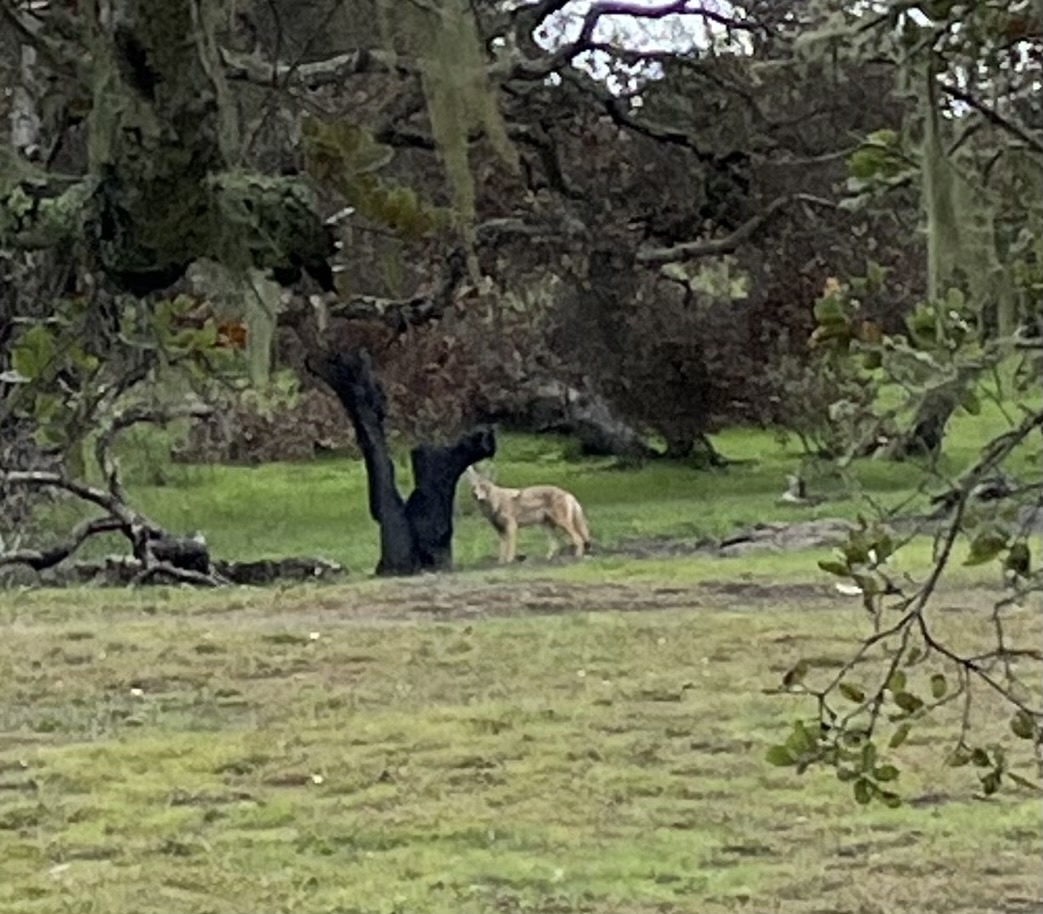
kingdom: Animalia
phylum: Chordata
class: Mammalia
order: Carnivora
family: Canidae
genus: Canis
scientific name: Canis latrans
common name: Coyote
